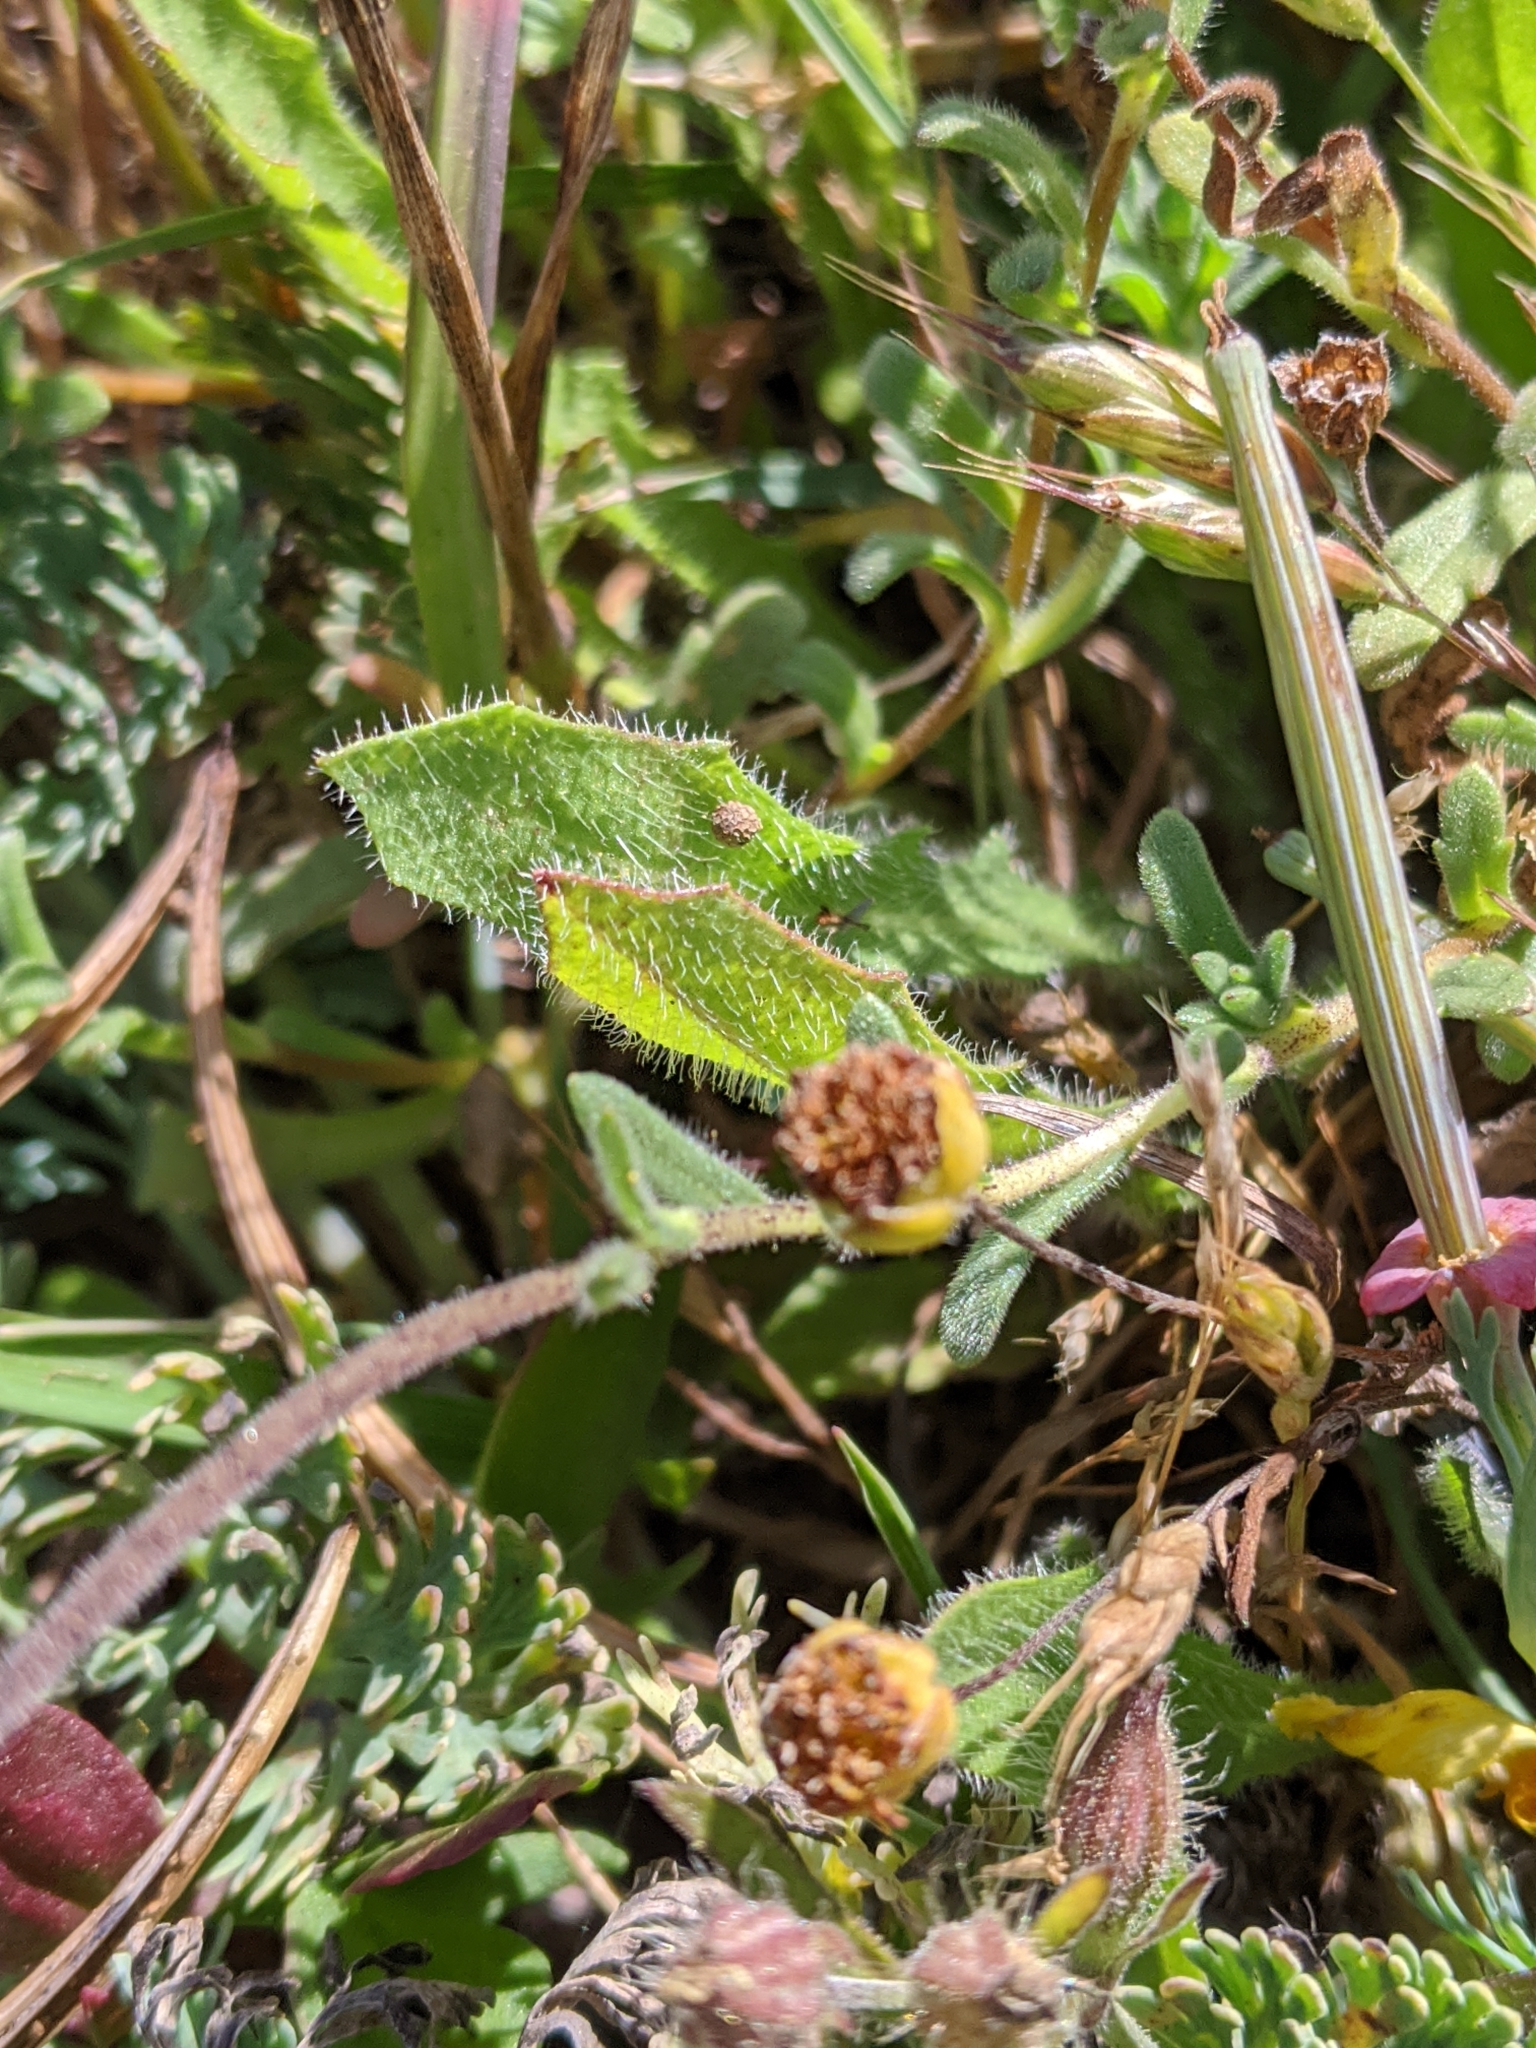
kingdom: Plantae
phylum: Tracheophyta
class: Magnoliopsida
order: Asterales
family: Asteraceae
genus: Layia
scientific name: Layia platyglossa
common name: Tidy-tips
